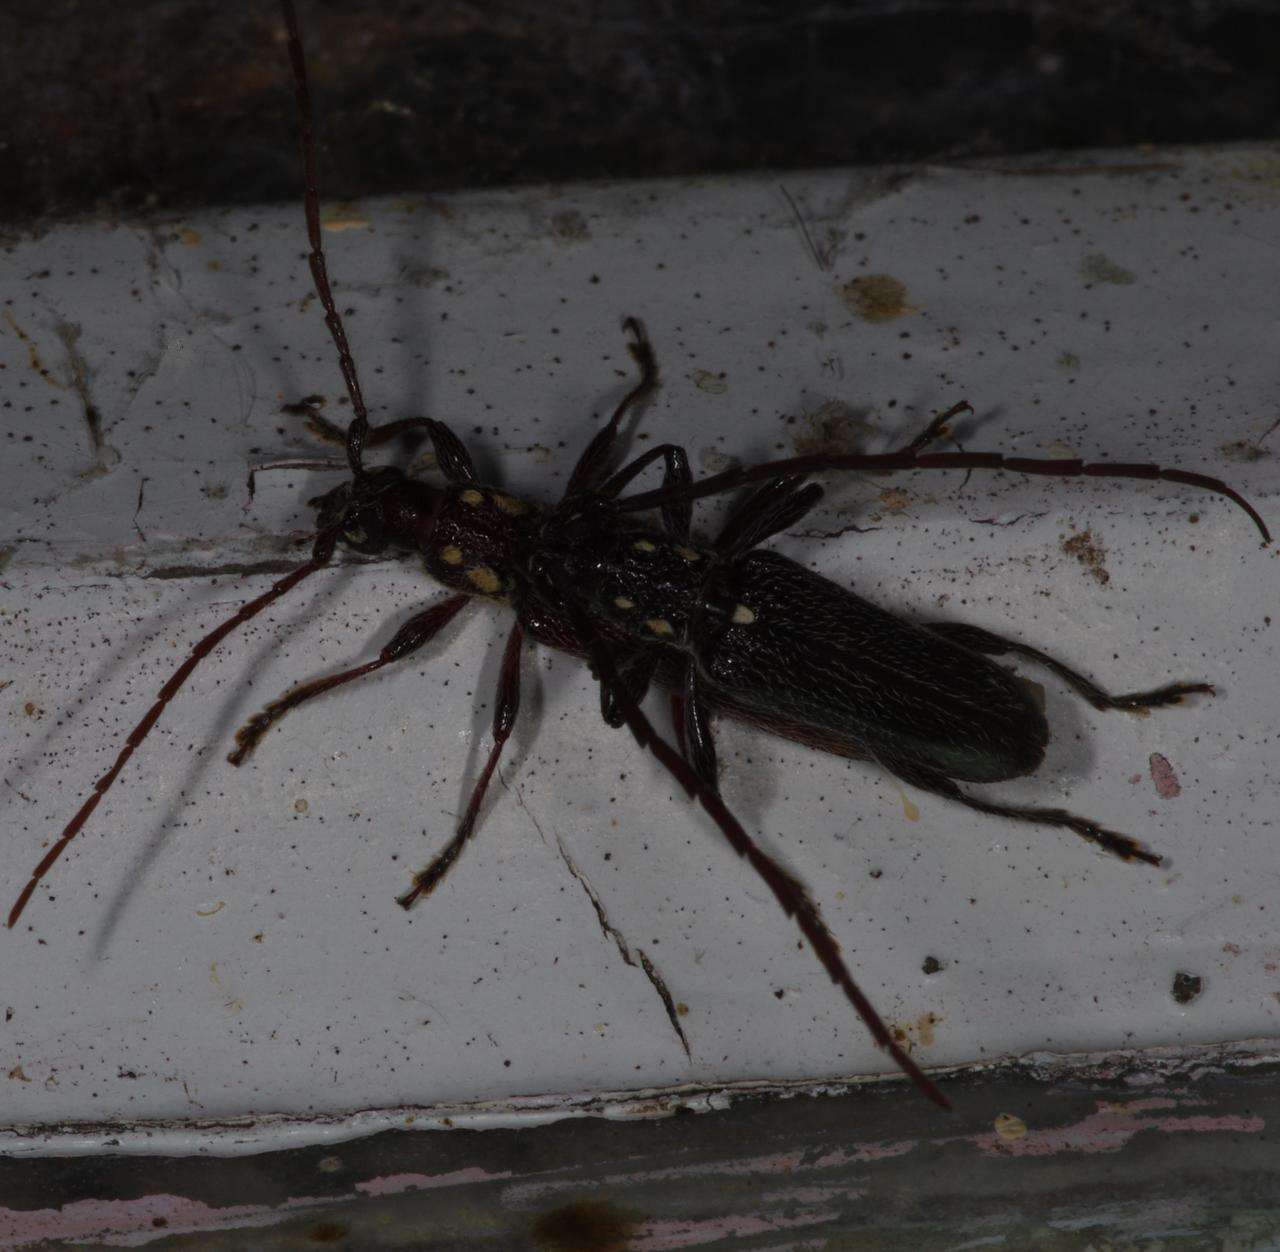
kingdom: Animalia
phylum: Arthropoda
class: Insecta
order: Coleoptera
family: Cerambycidae
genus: Strongylurus
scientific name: Strongylurus ceresioides
